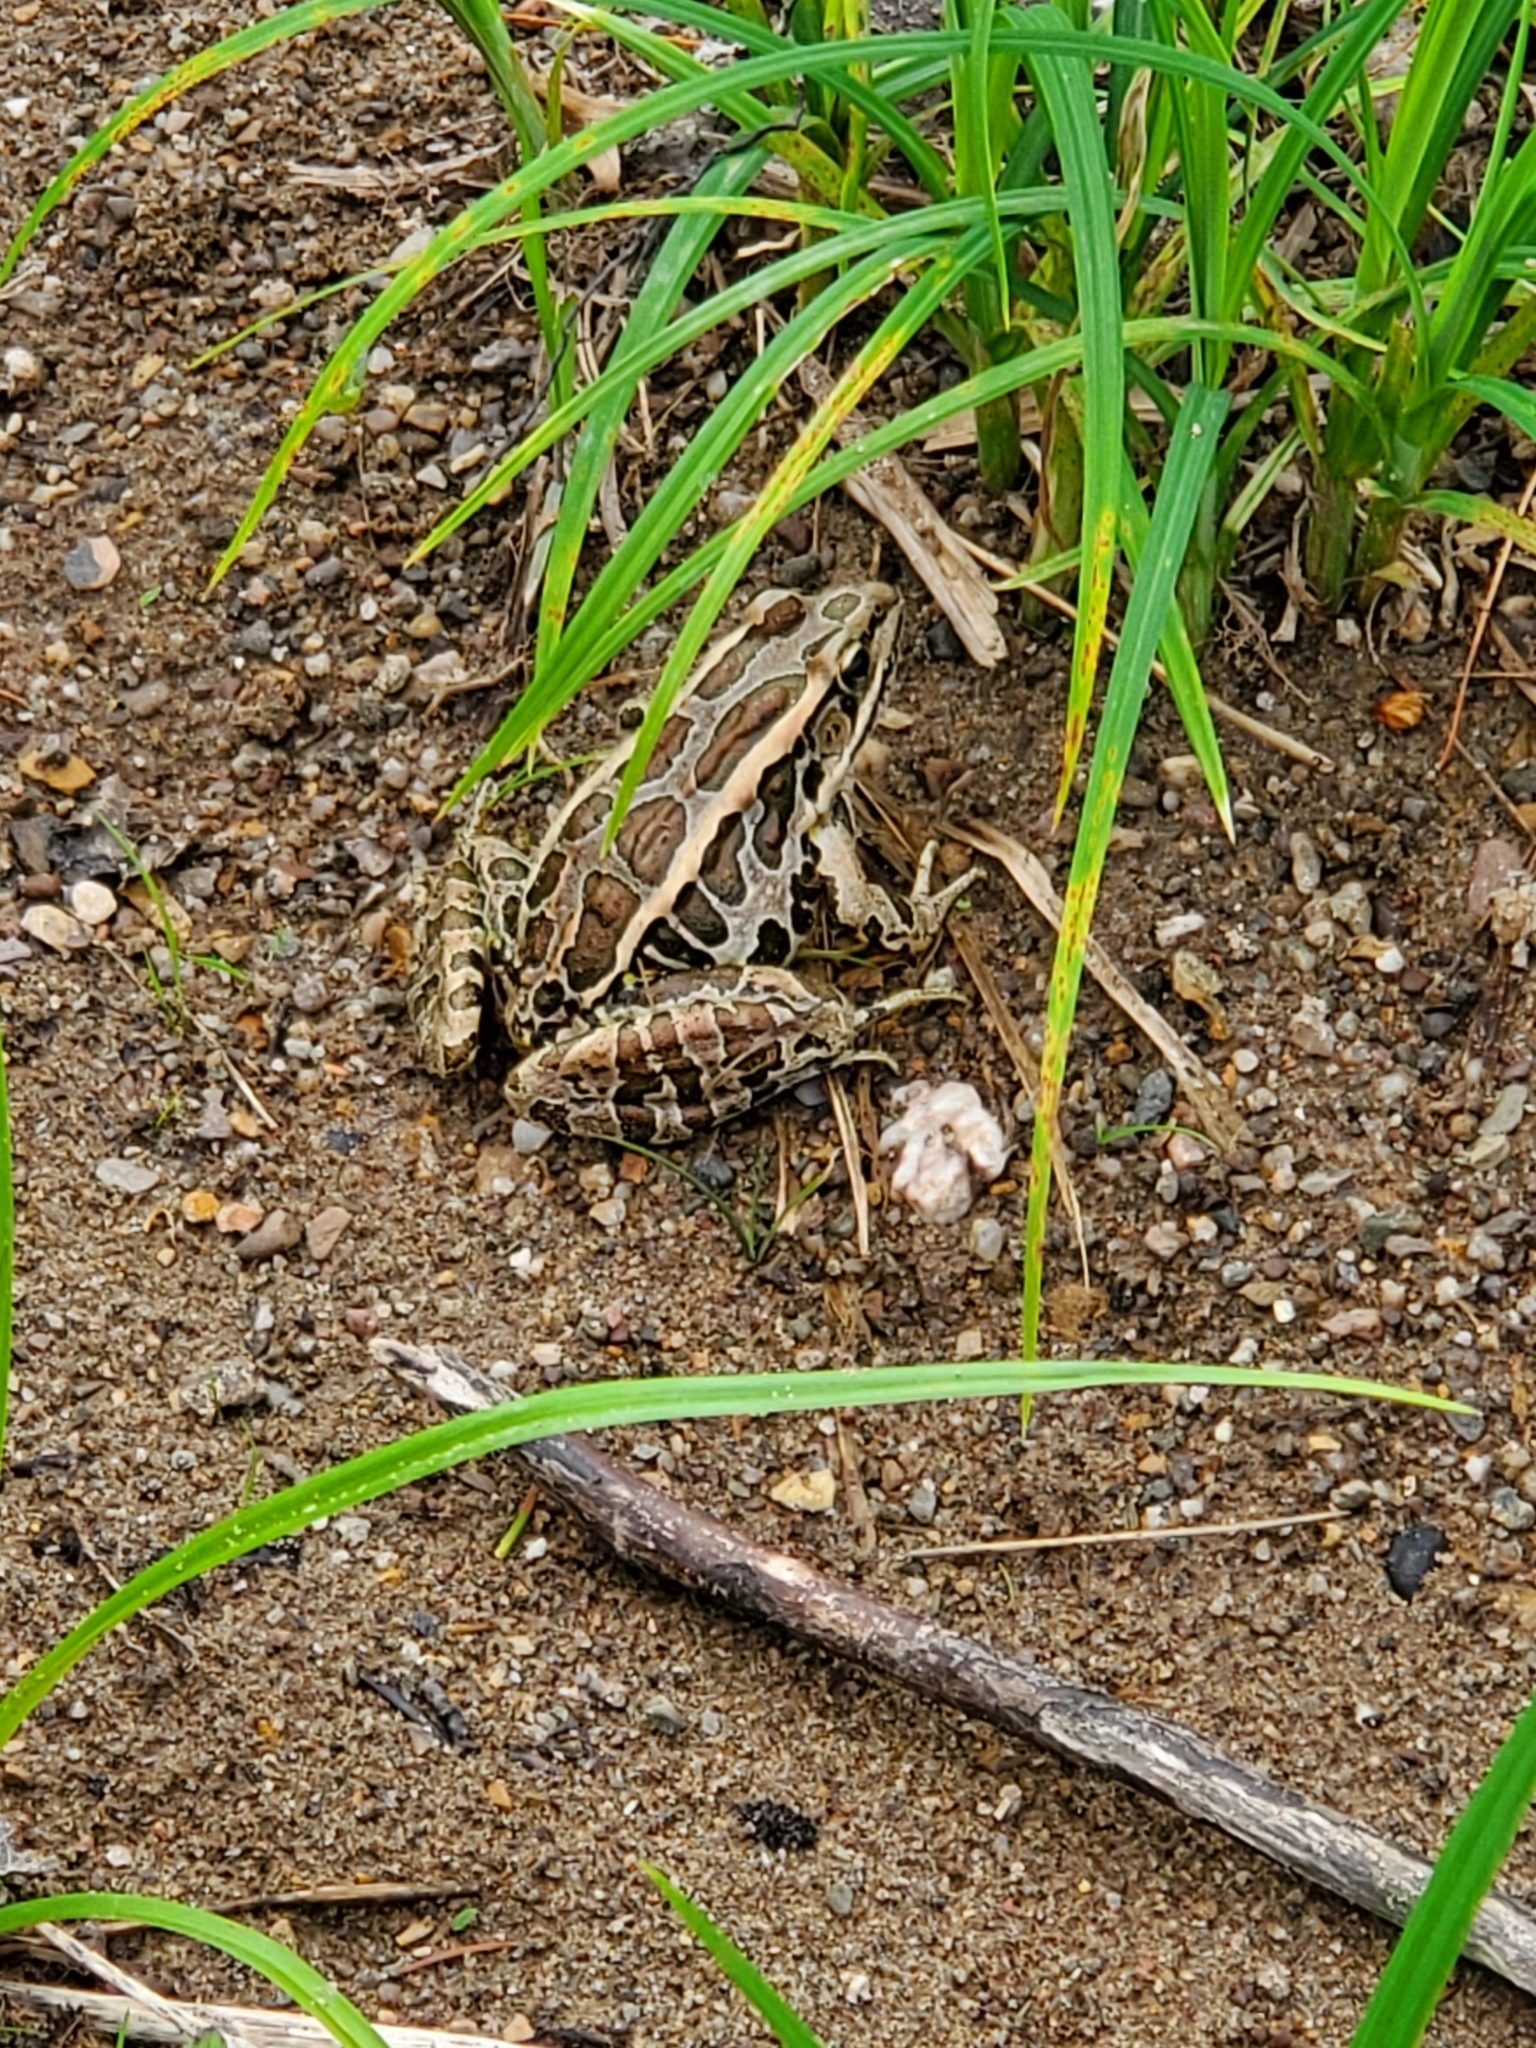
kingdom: Animalia
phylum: Chordata
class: Amphibia
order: Anura
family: Ranidae
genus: Lithobates
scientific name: Lithobates palustris
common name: Pickerel frog
